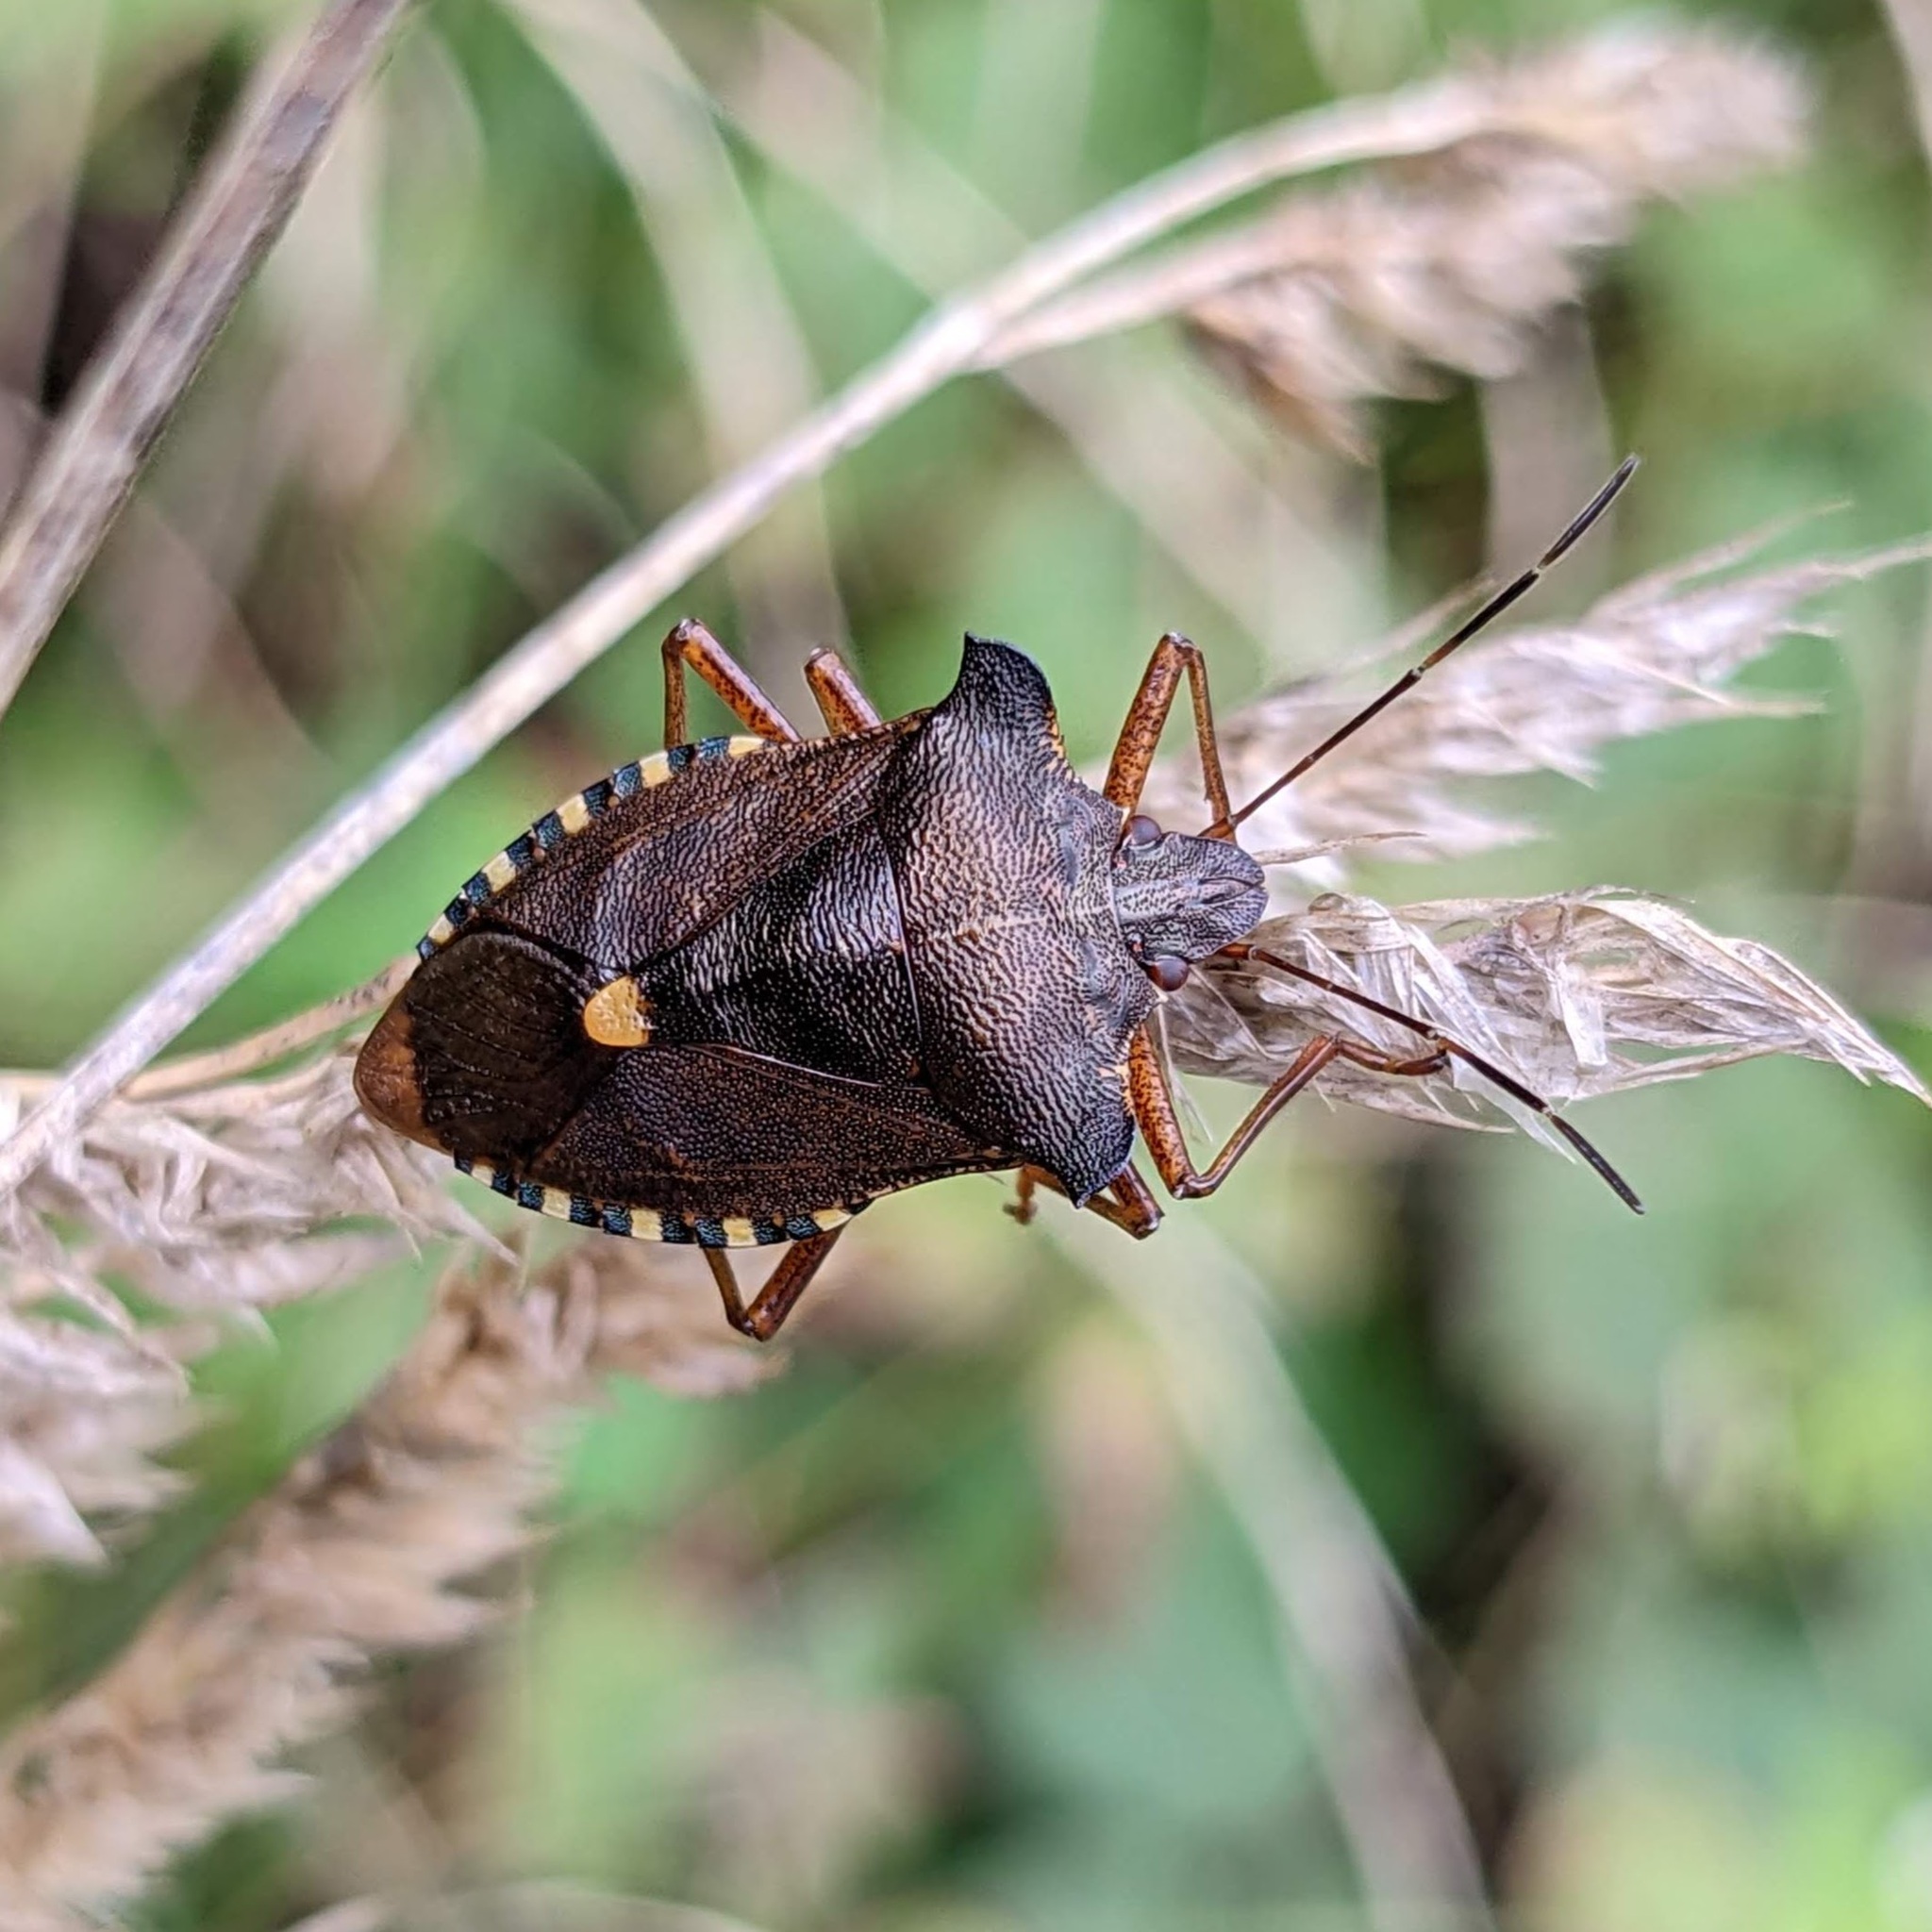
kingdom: Animalia
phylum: Arthropoda
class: Insecta
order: Hemiptera
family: Pentatomidae
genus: Pentatoma
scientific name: Pentatoma rufipes
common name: Forest bug
